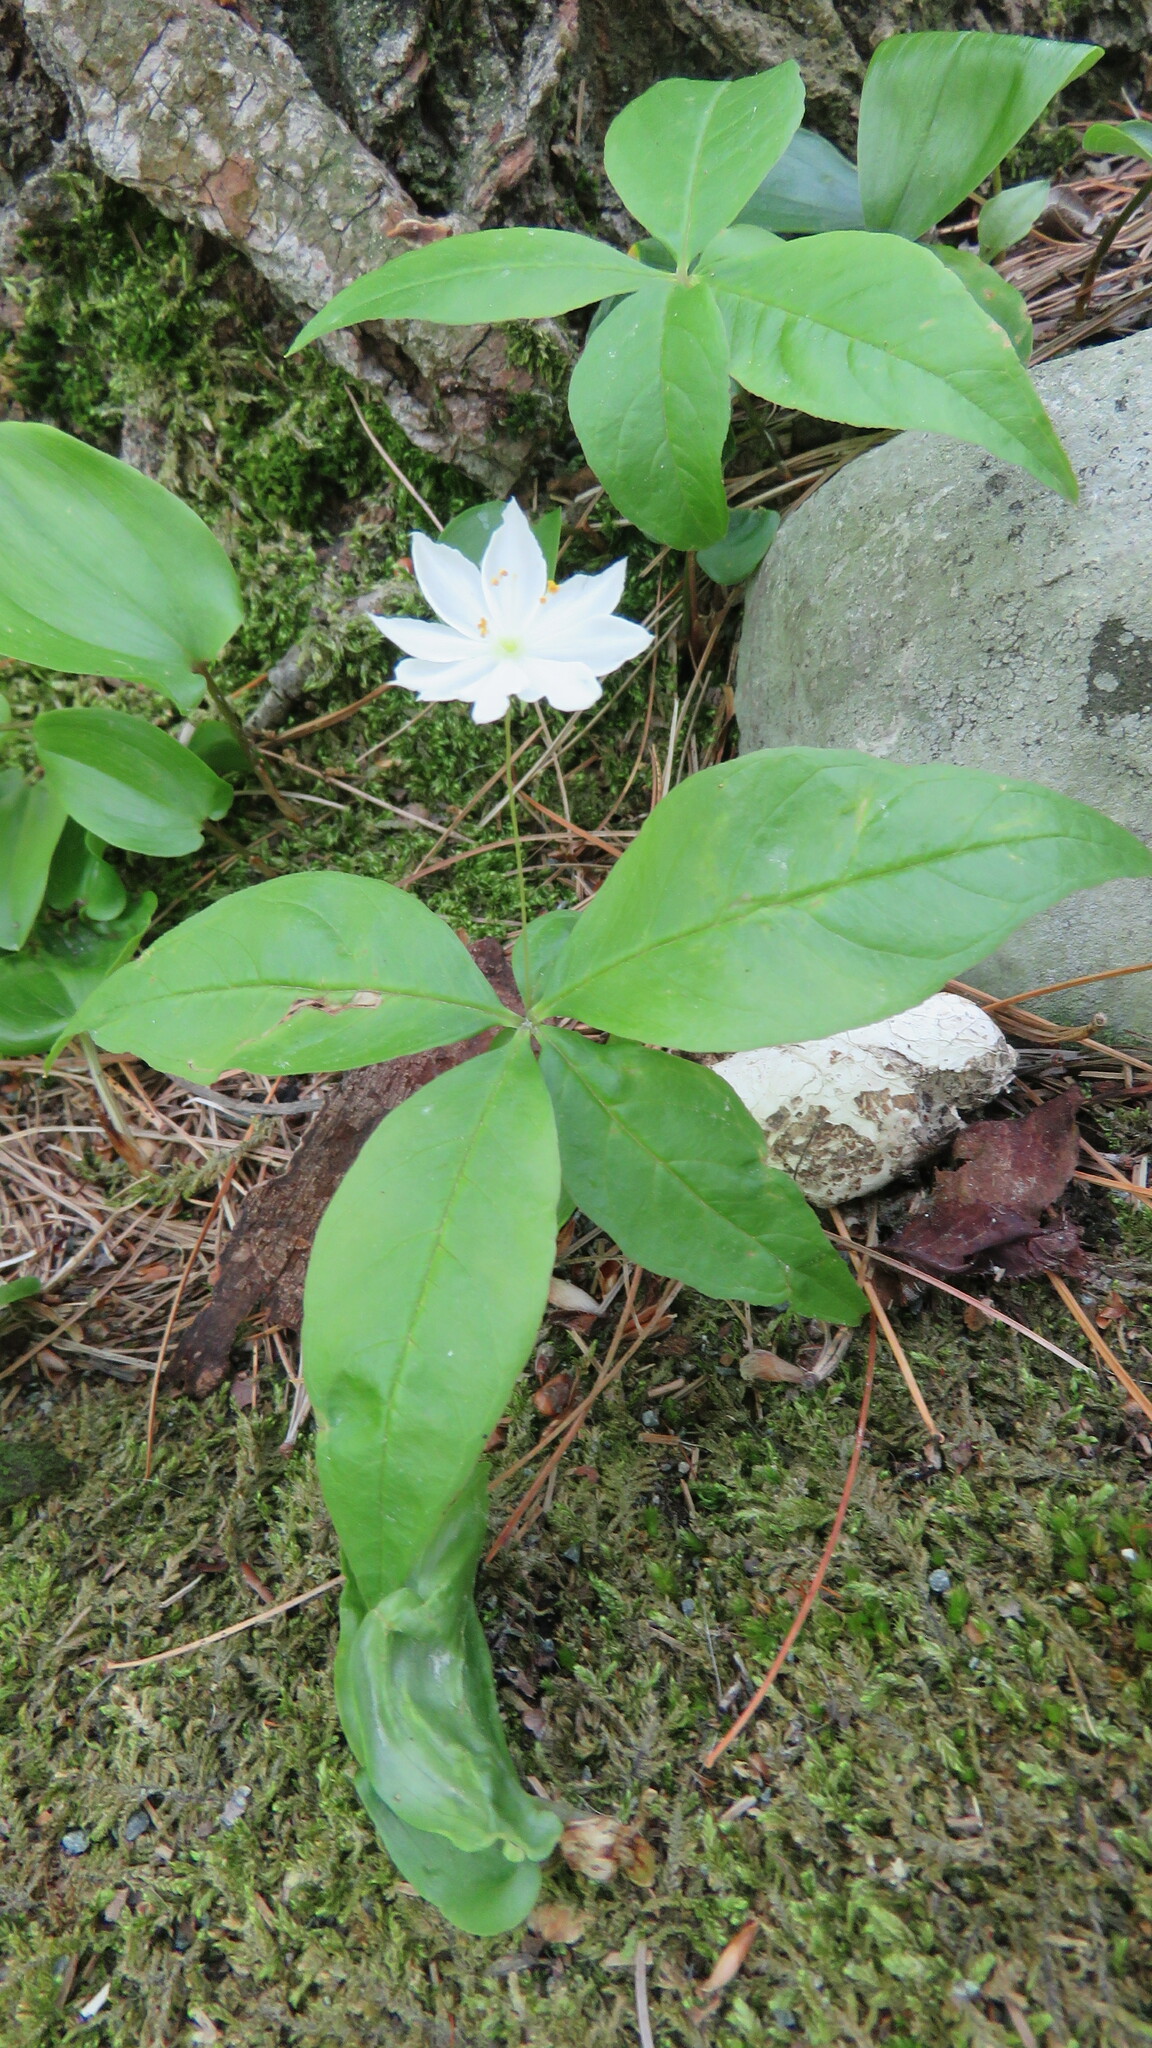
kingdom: Plantae
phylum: Tracheophyta
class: Magnoliopsida
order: Ericales
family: Primulaceae
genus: Lysimachia
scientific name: Lysimachia borealis
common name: American starflower
